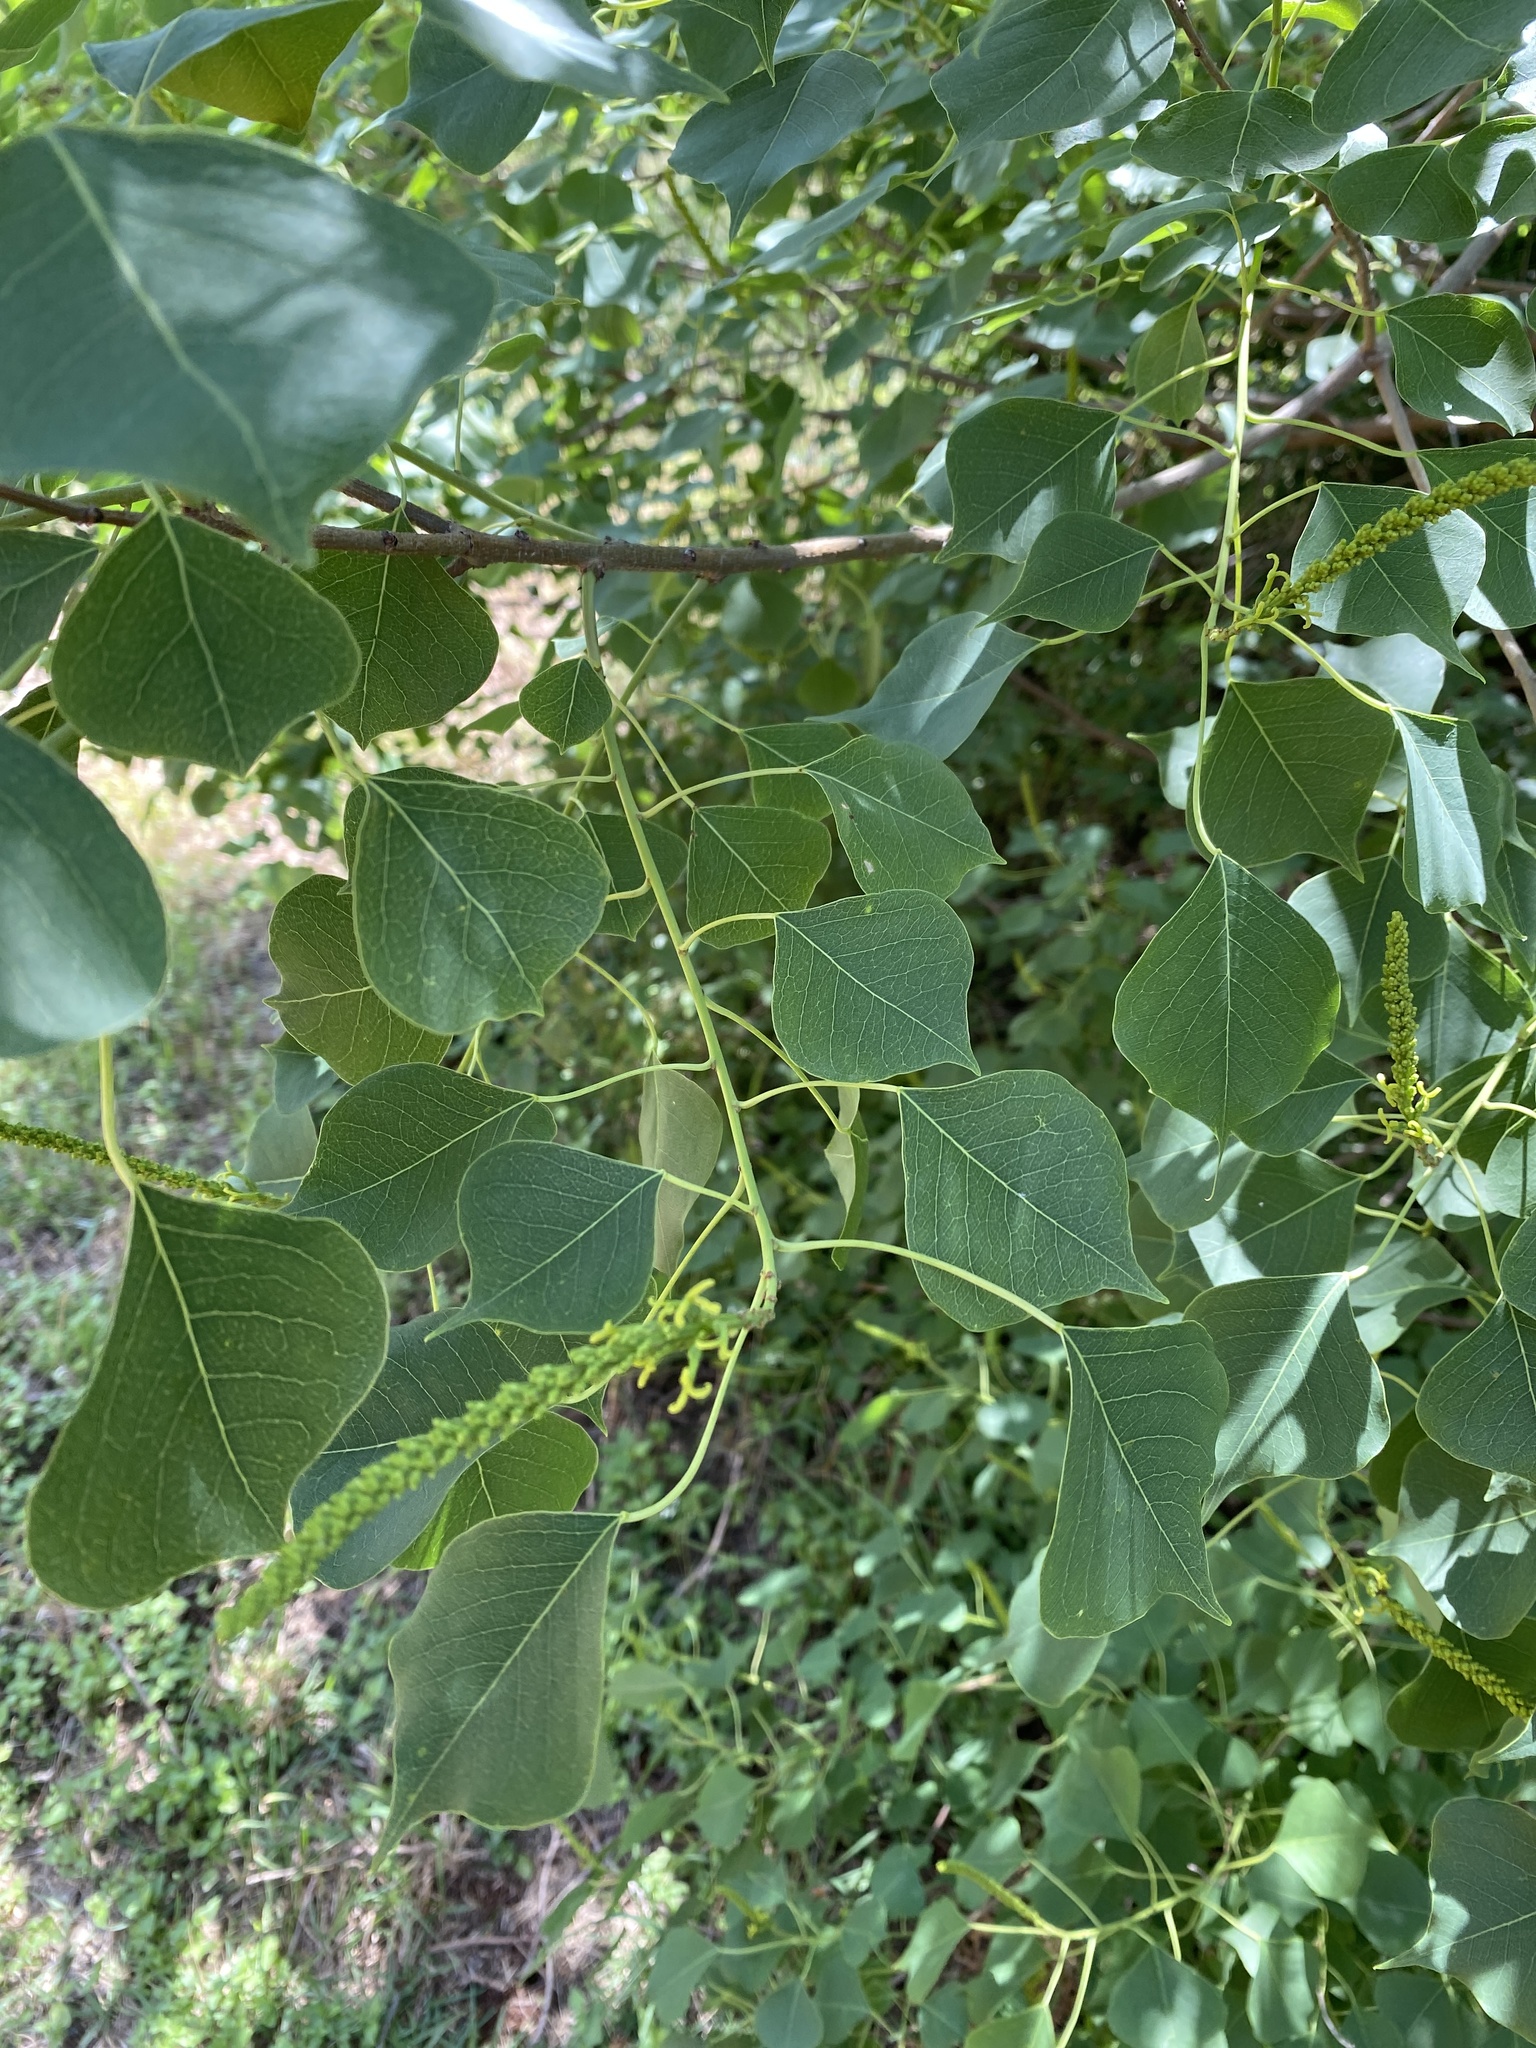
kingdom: Plantae
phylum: Tracheophyta
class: Magnoliopsida
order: Malpighiales
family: Euphorbiaceae
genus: Triadica
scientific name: Triadica sebifera
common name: Chinese tallow
